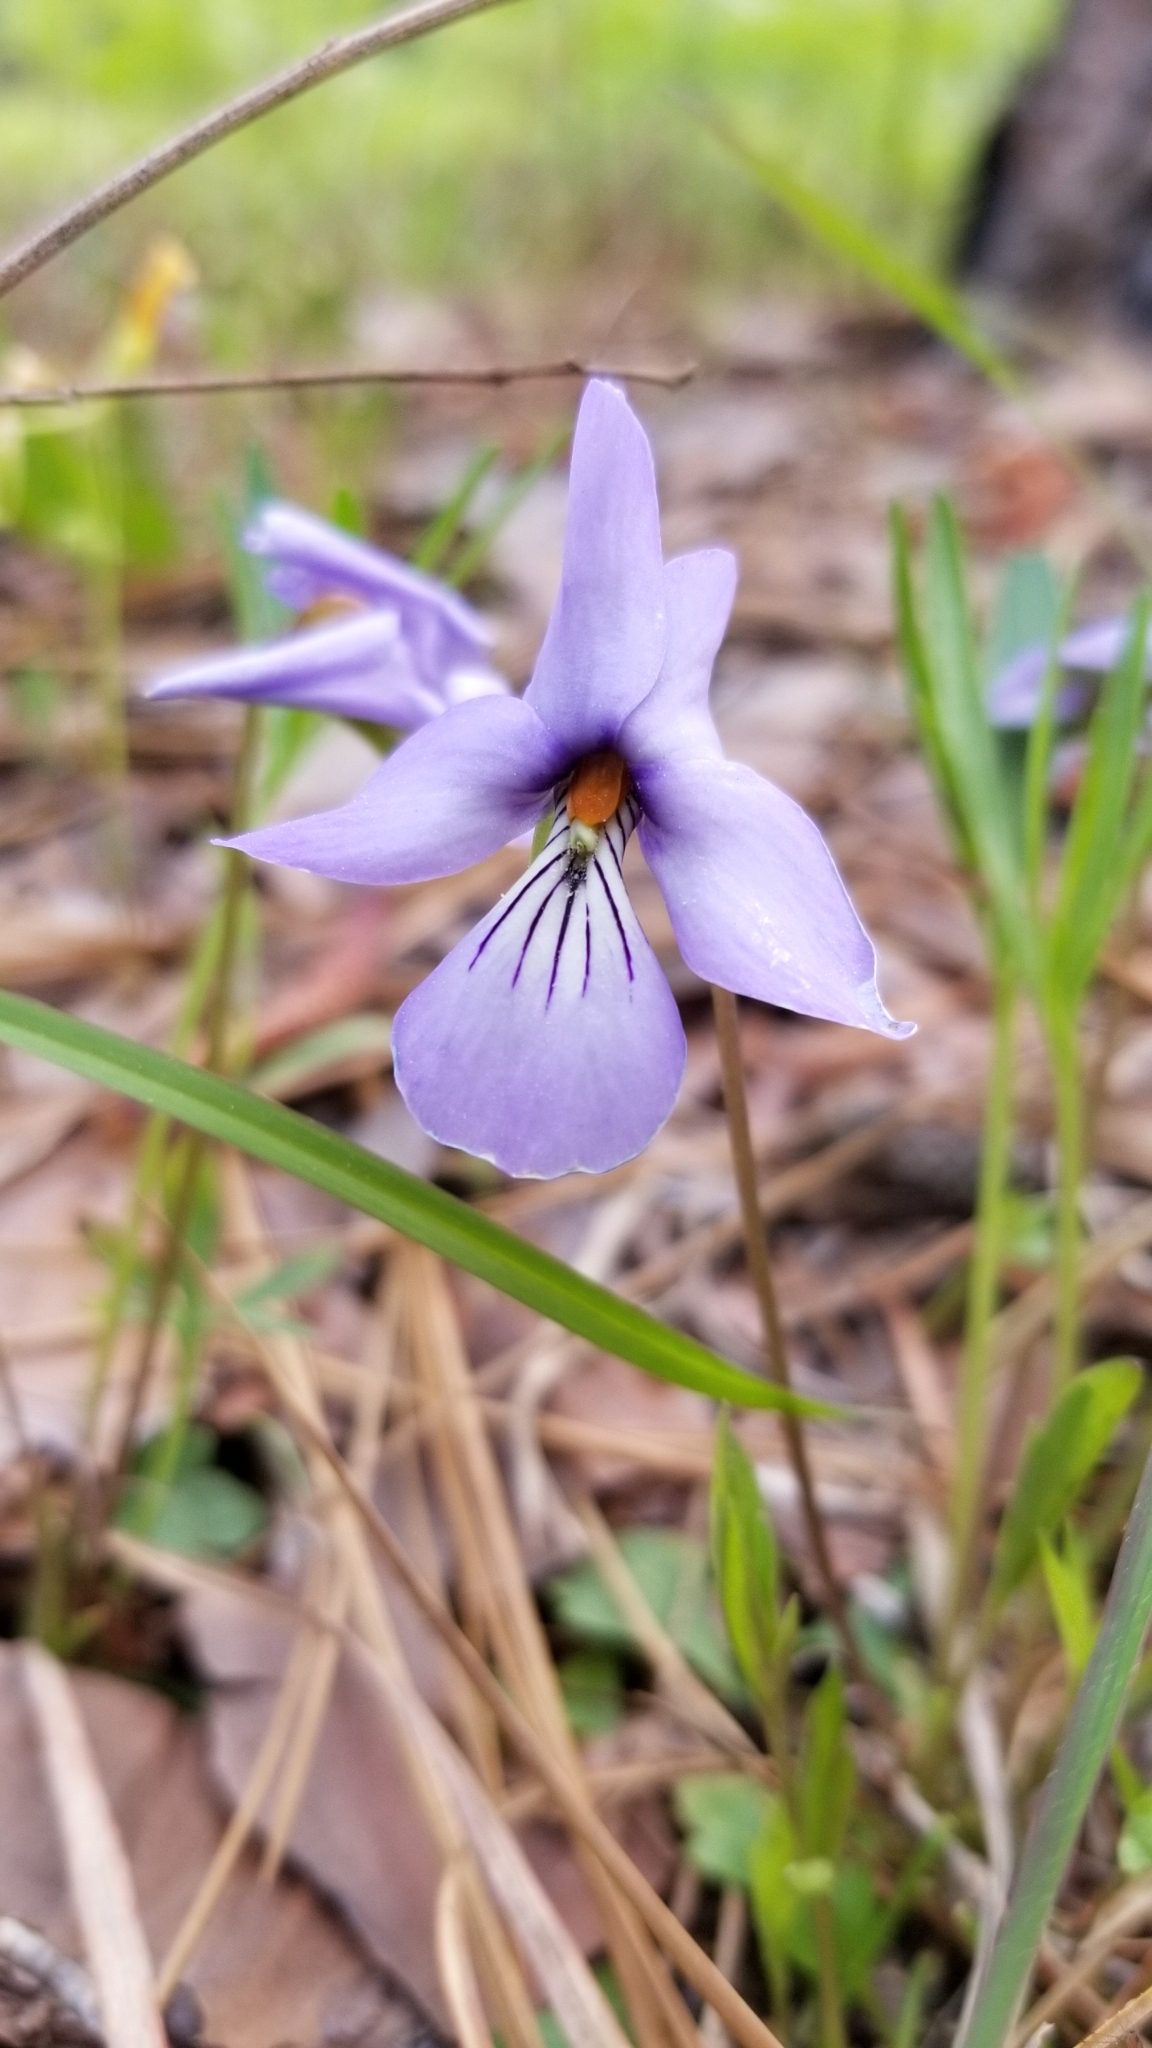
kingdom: Plantae
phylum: Tracheophyta
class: Magnoliopsida
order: Malpighiales
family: Violaceae
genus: Viola
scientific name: Viola pedata
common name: Pansy violet
